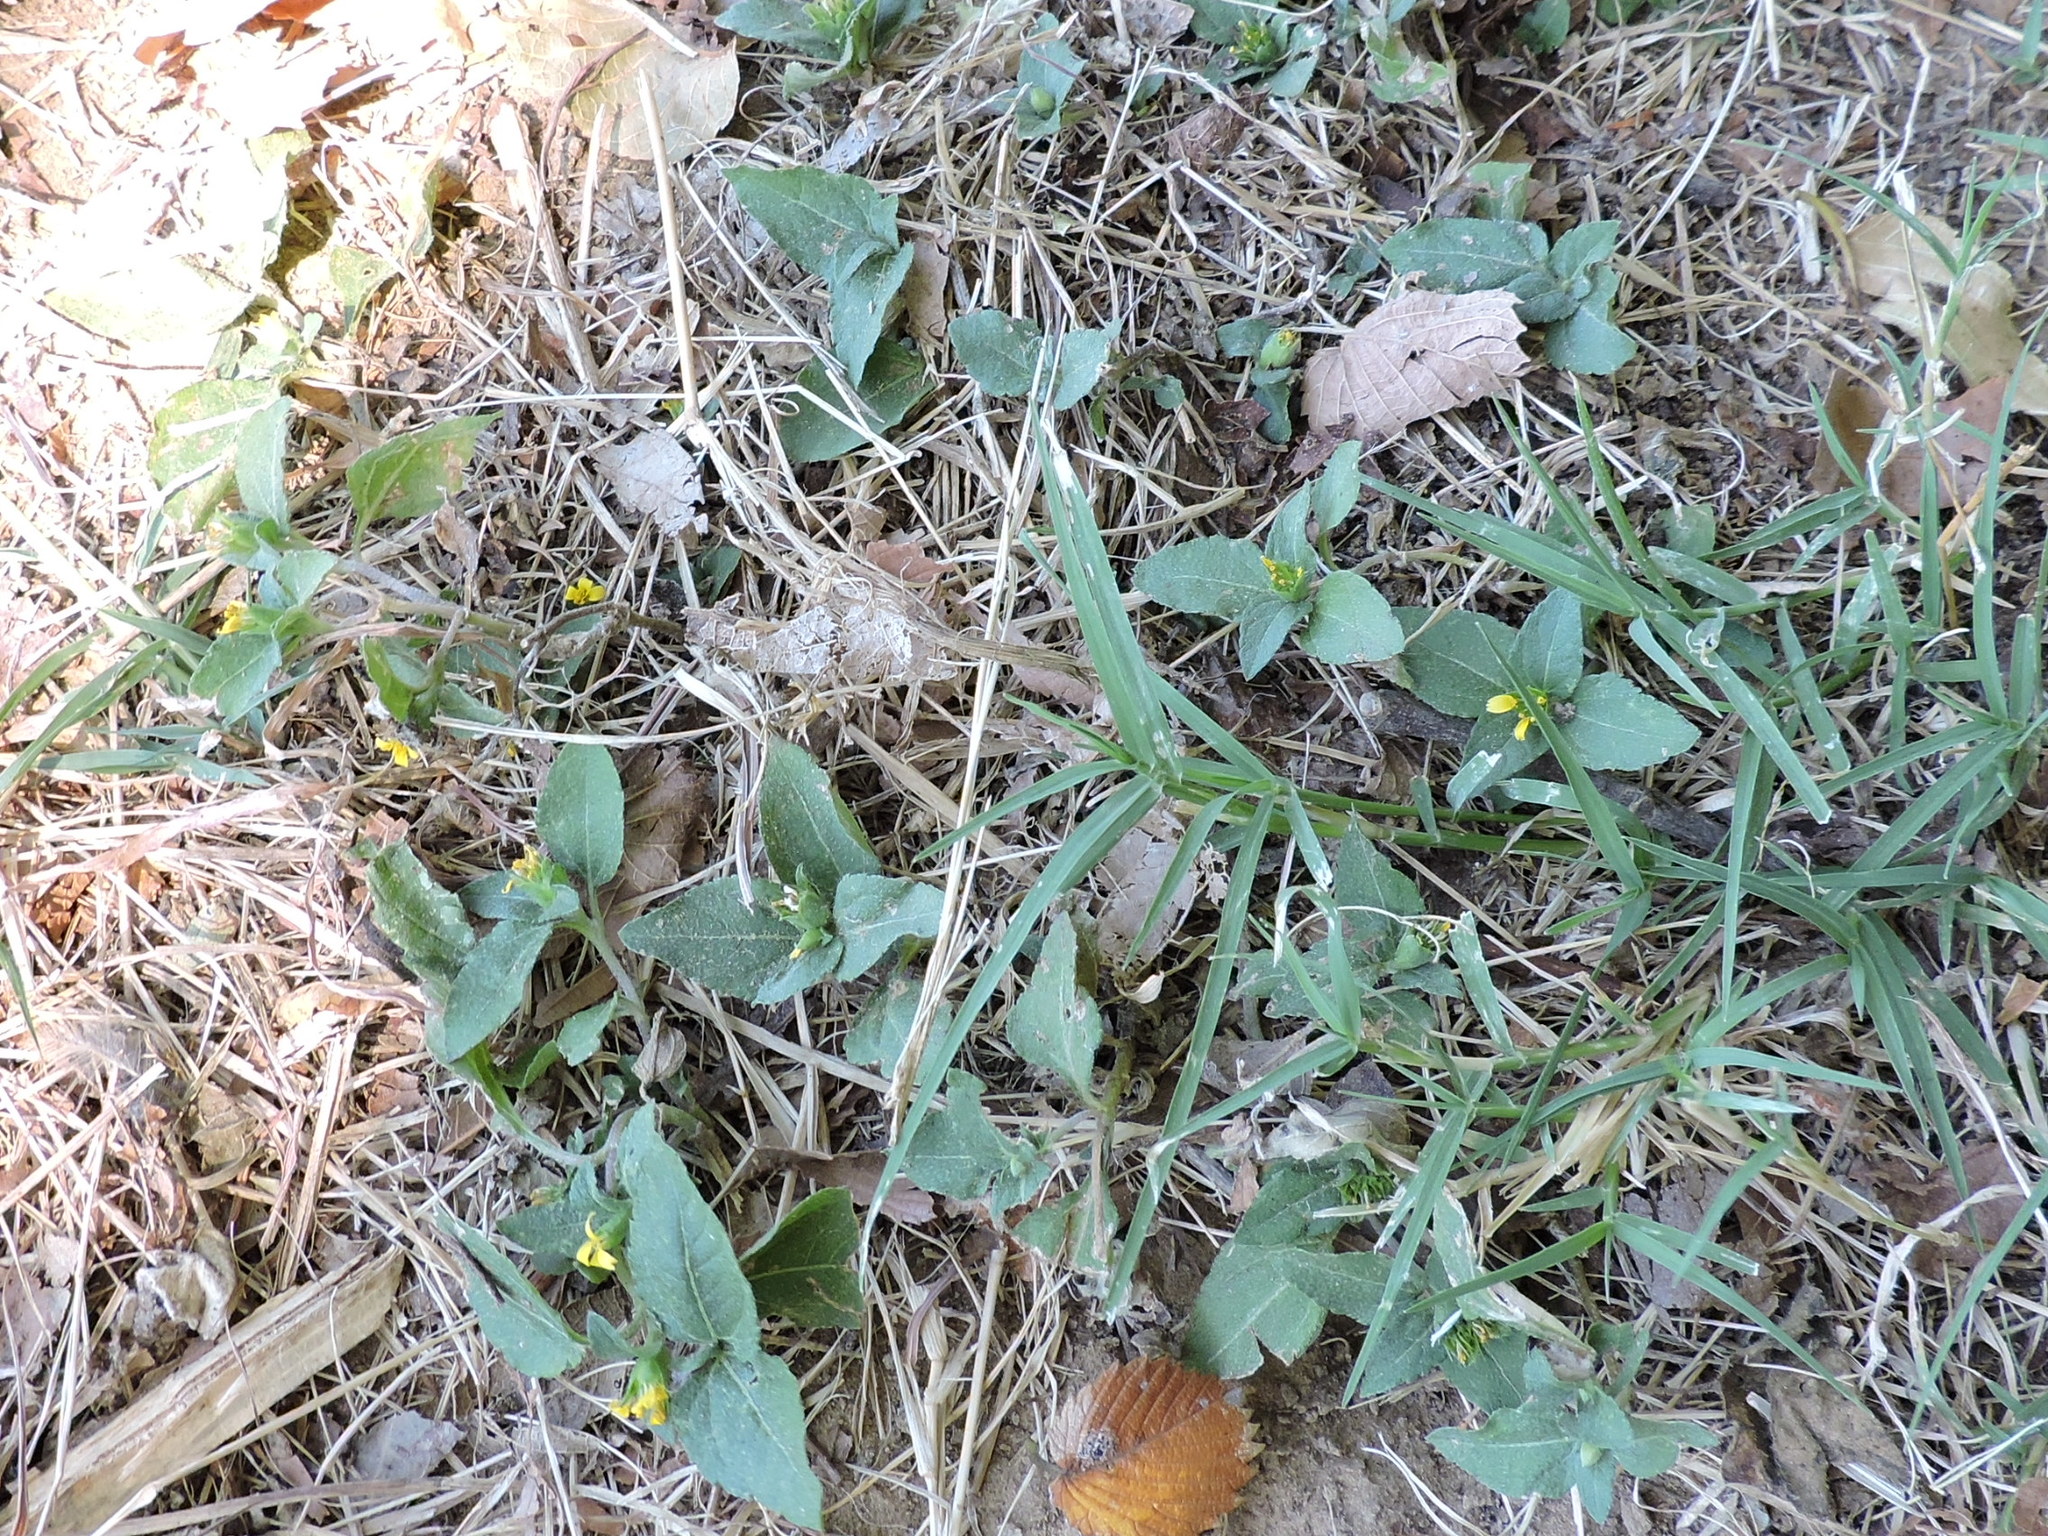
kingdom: Plantae
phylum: Tracheophyta
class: Magnoliopsida
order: Asterales
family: Asteraceae
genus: Calyptocarpus
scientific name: Calyptocarpus vialis
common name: Straggler daisy
